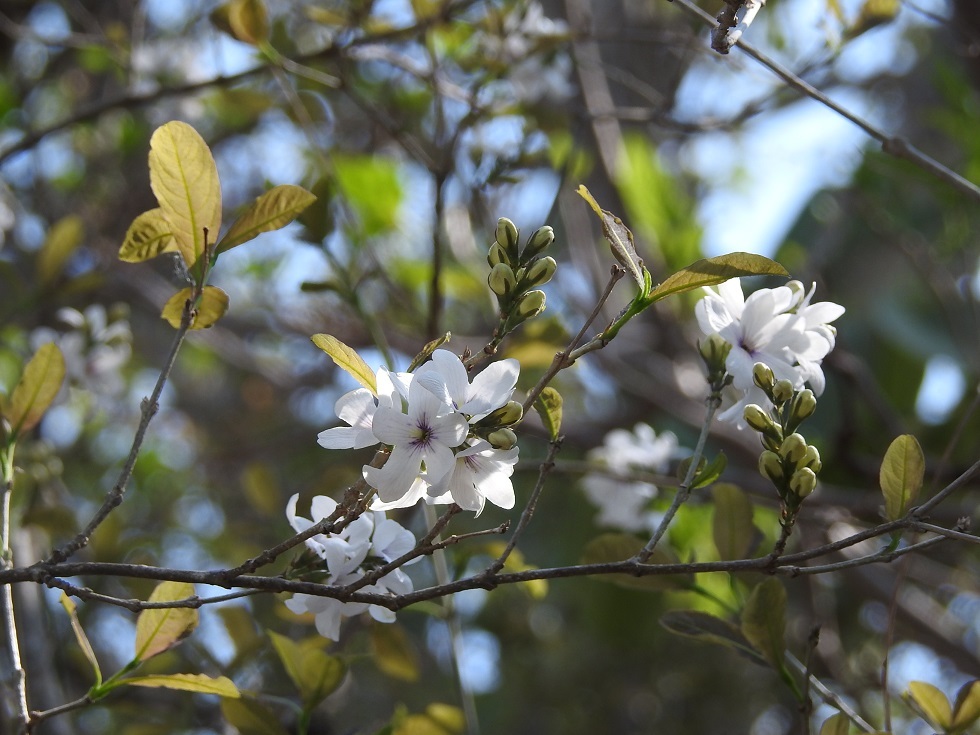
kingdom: Plantae
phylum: Tracheophyta
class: Magnoliopsida
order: Lamiales
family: Verbenaceae
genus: Petrea
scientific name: Petrea asperifolia
